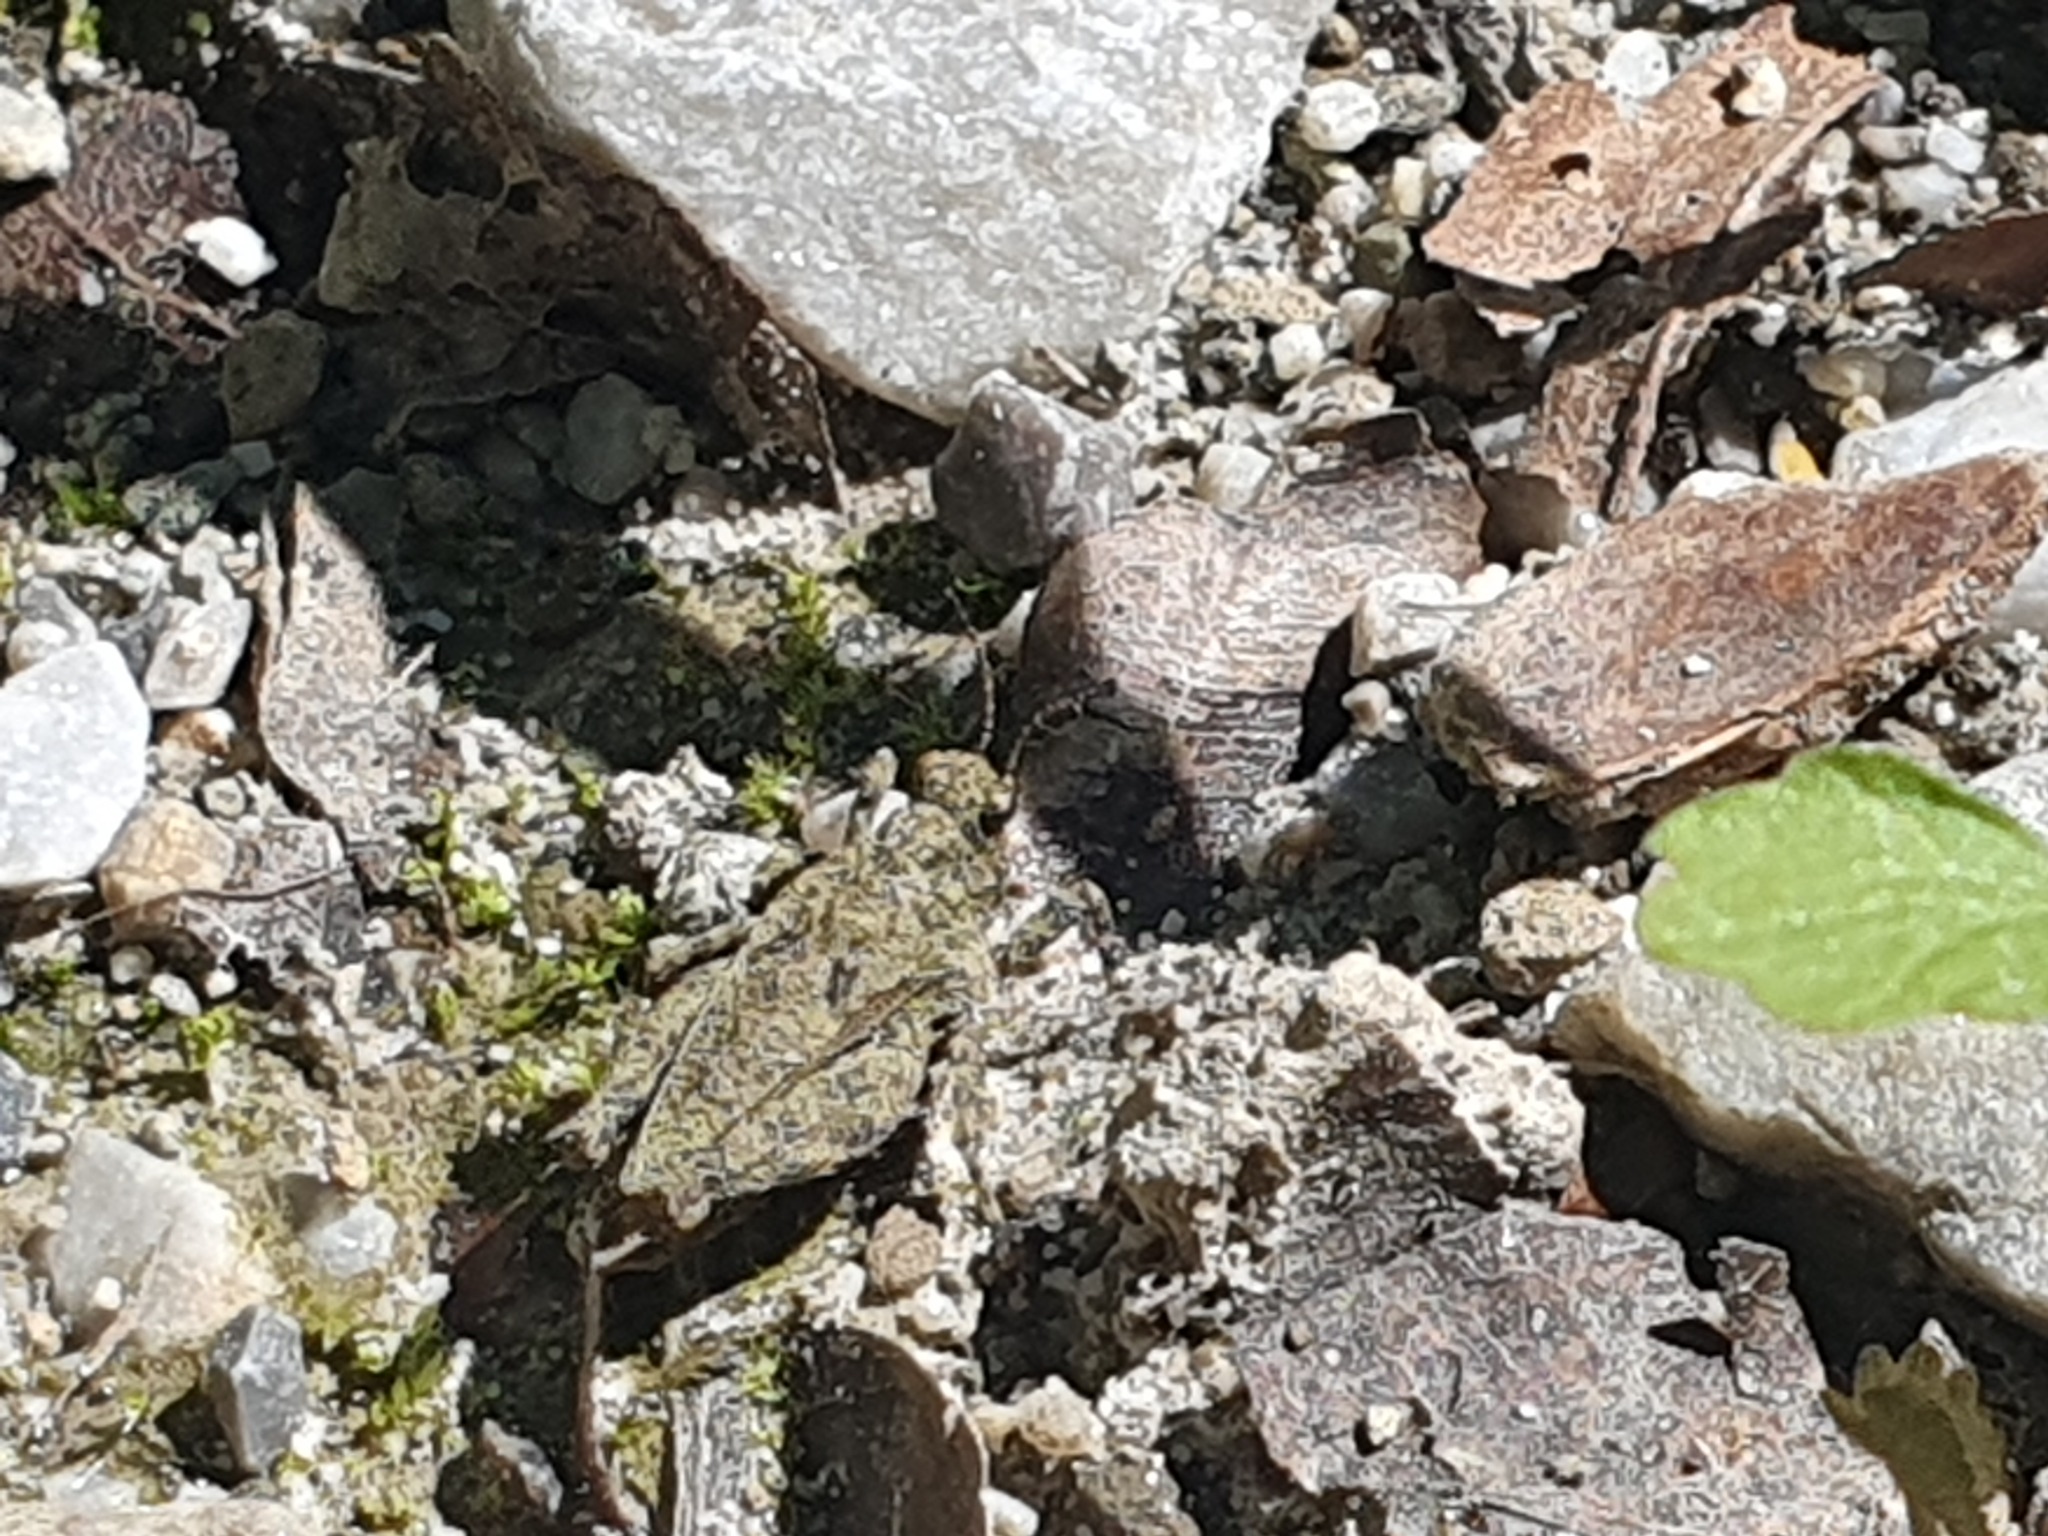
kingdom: Animalia
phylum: Arthropoda
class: Insecta
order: Orthoptera
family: Tetrigidae
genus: Tetrix
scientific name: Tetrix transsylvanica
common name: Transsylvanian wingless groundhopper
